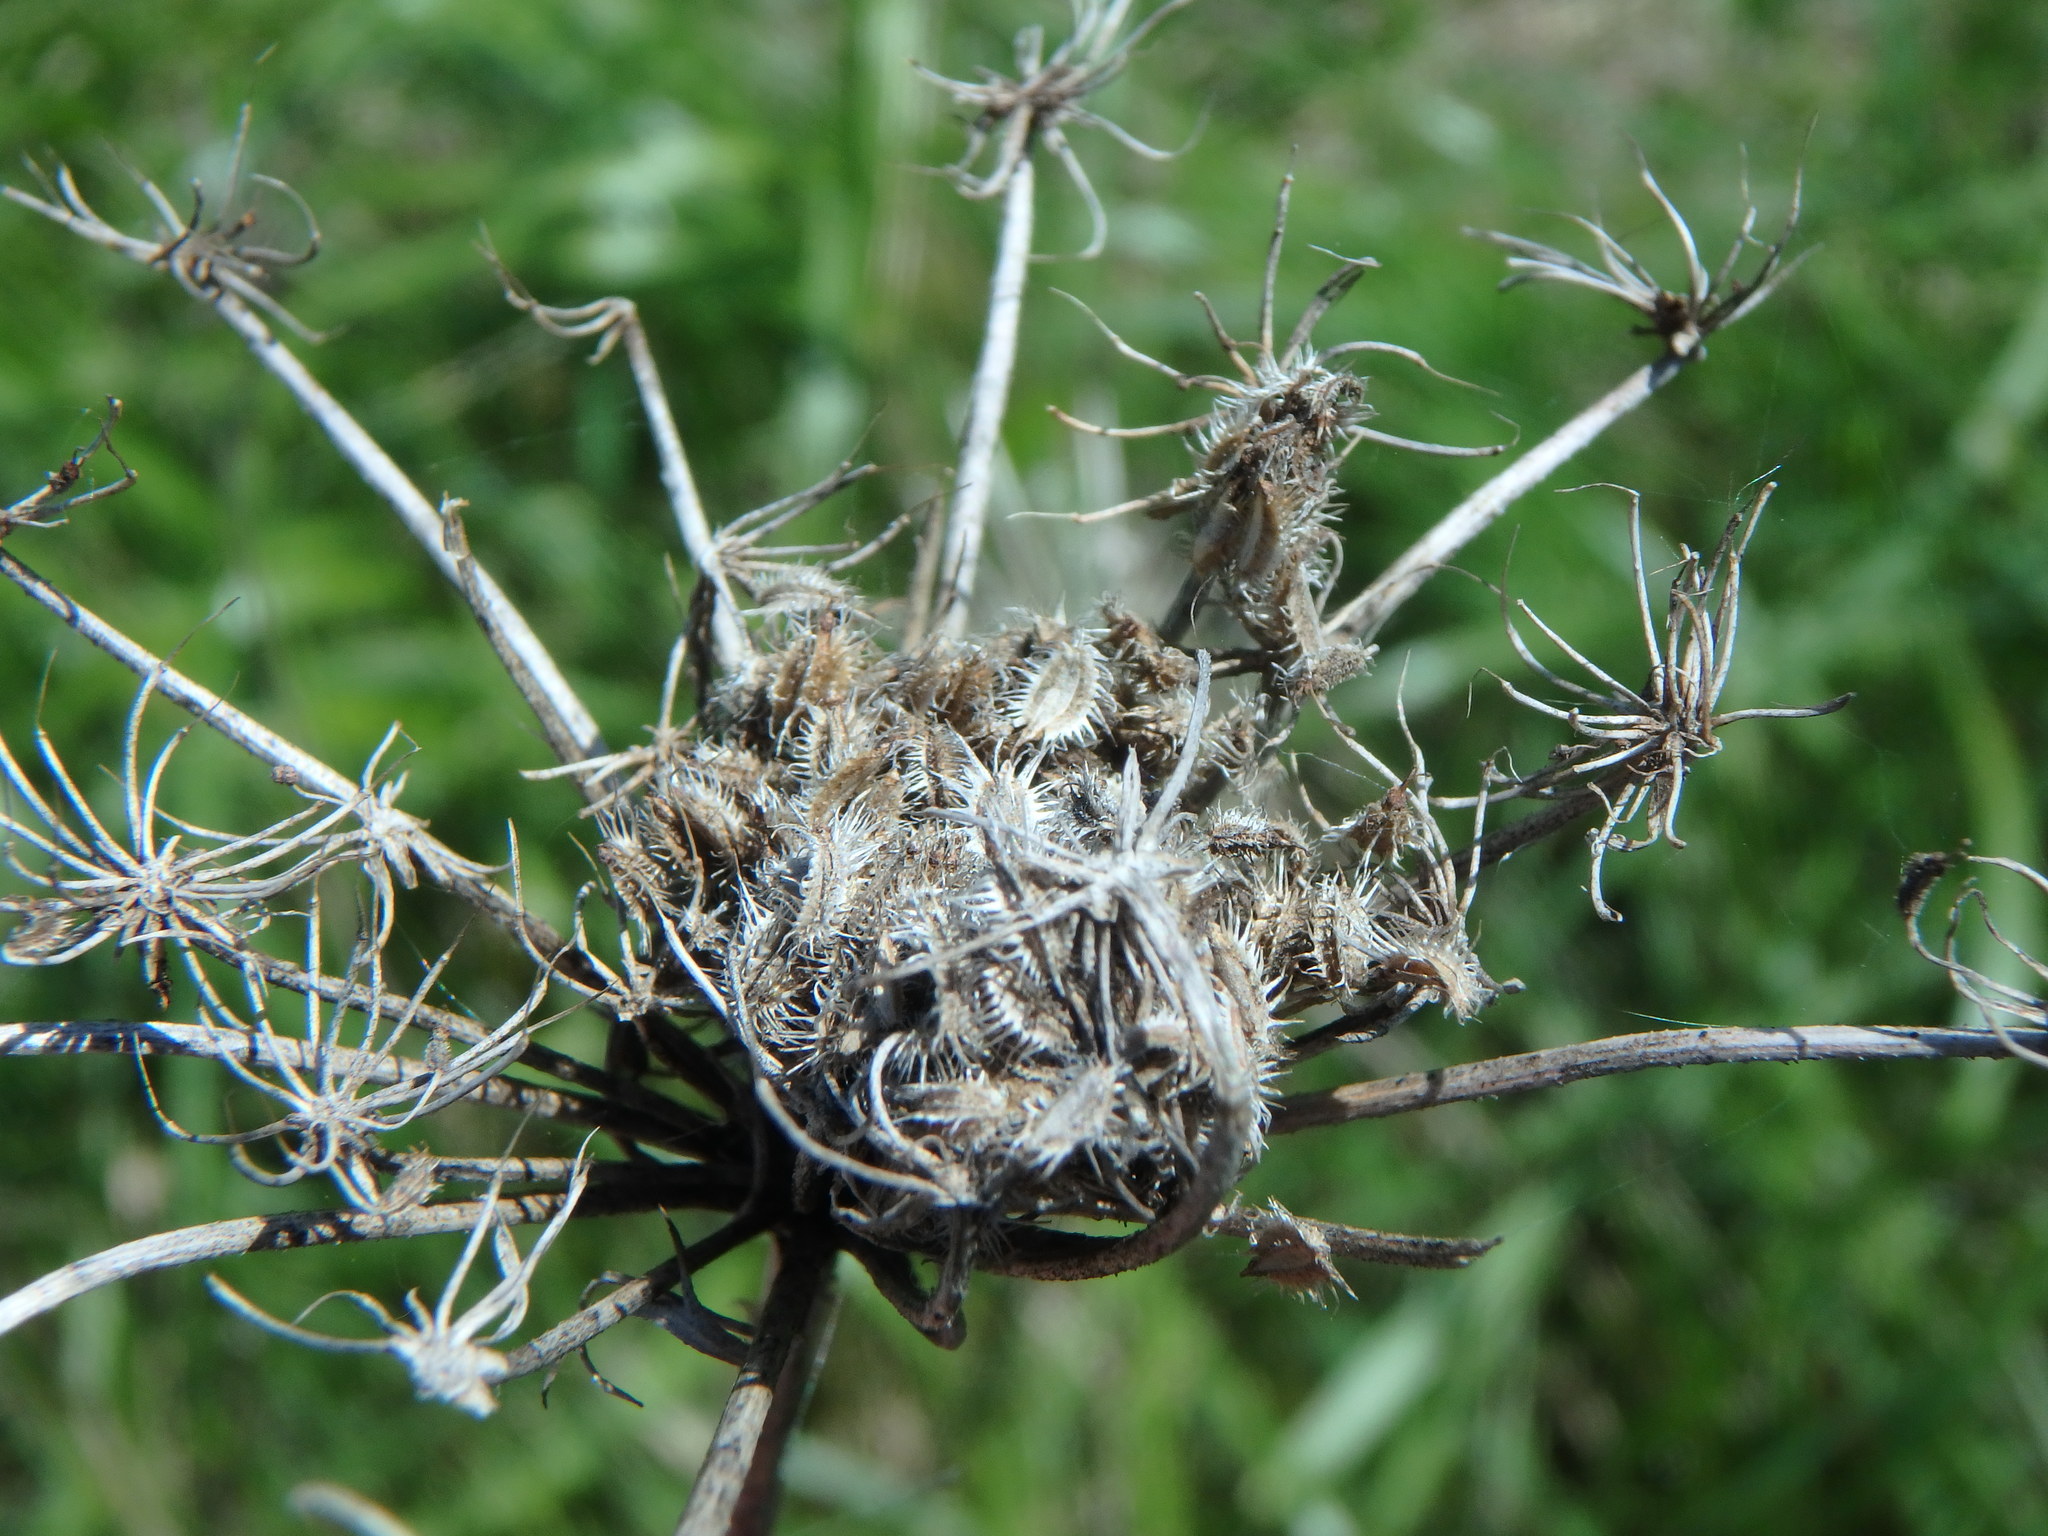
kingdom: Plantae
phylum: Tracheophyta
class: Magnoliopsida
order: Apiales
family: Apiaceae
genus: Daucus
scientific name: Daucus carota
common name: Wild carrot
